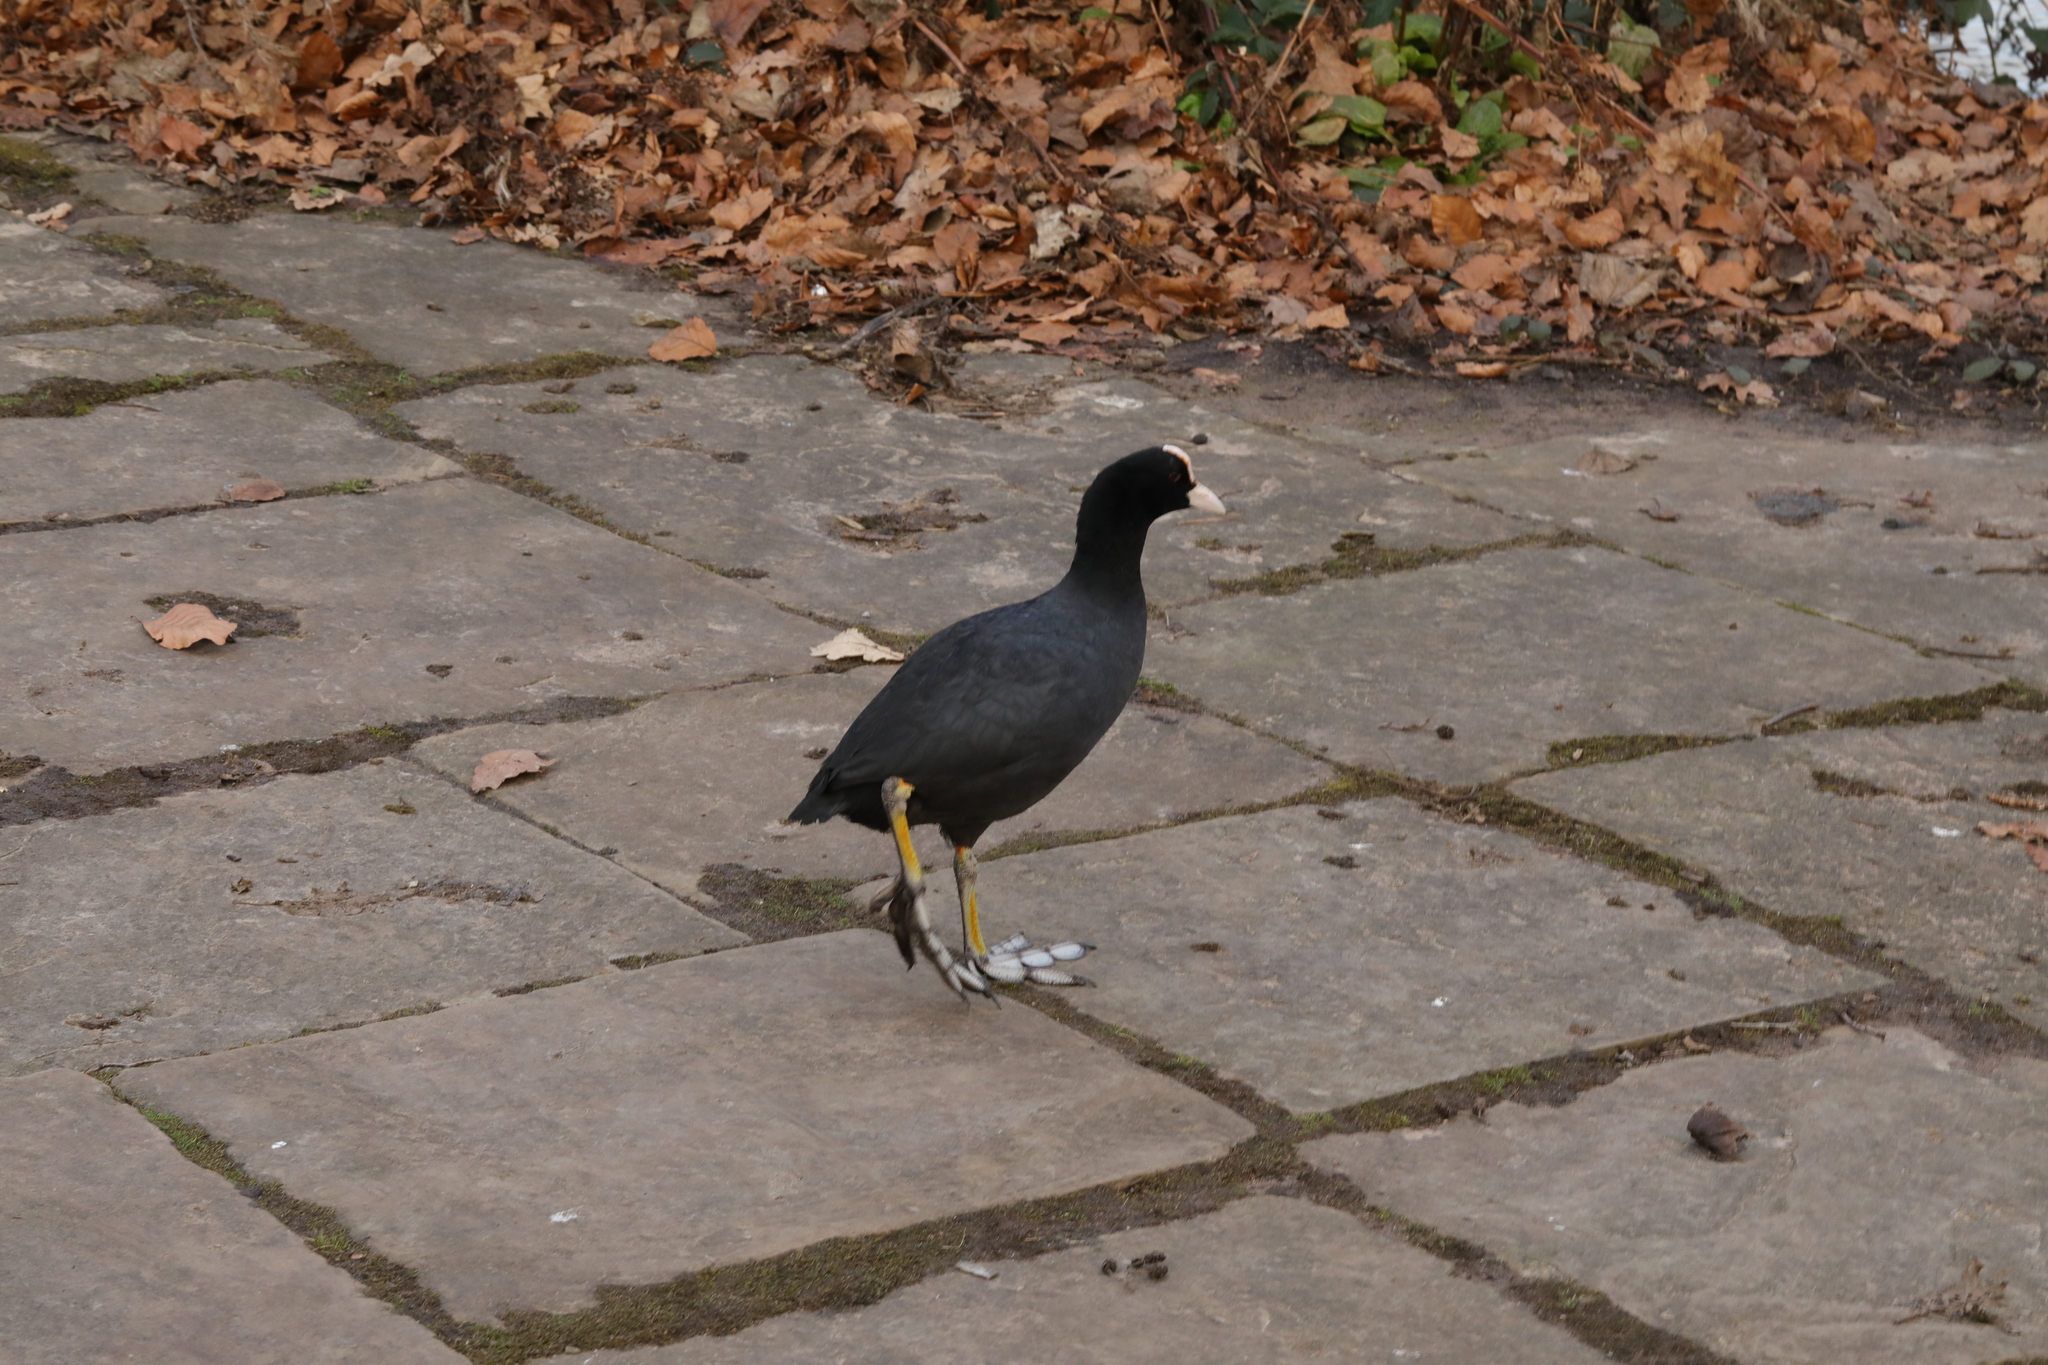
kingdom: Animalia
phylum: Chordata
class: Aves
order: Gruiformes
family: Rallidae
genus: Fulica
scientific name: Fulica atra
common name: Eurasian coot
